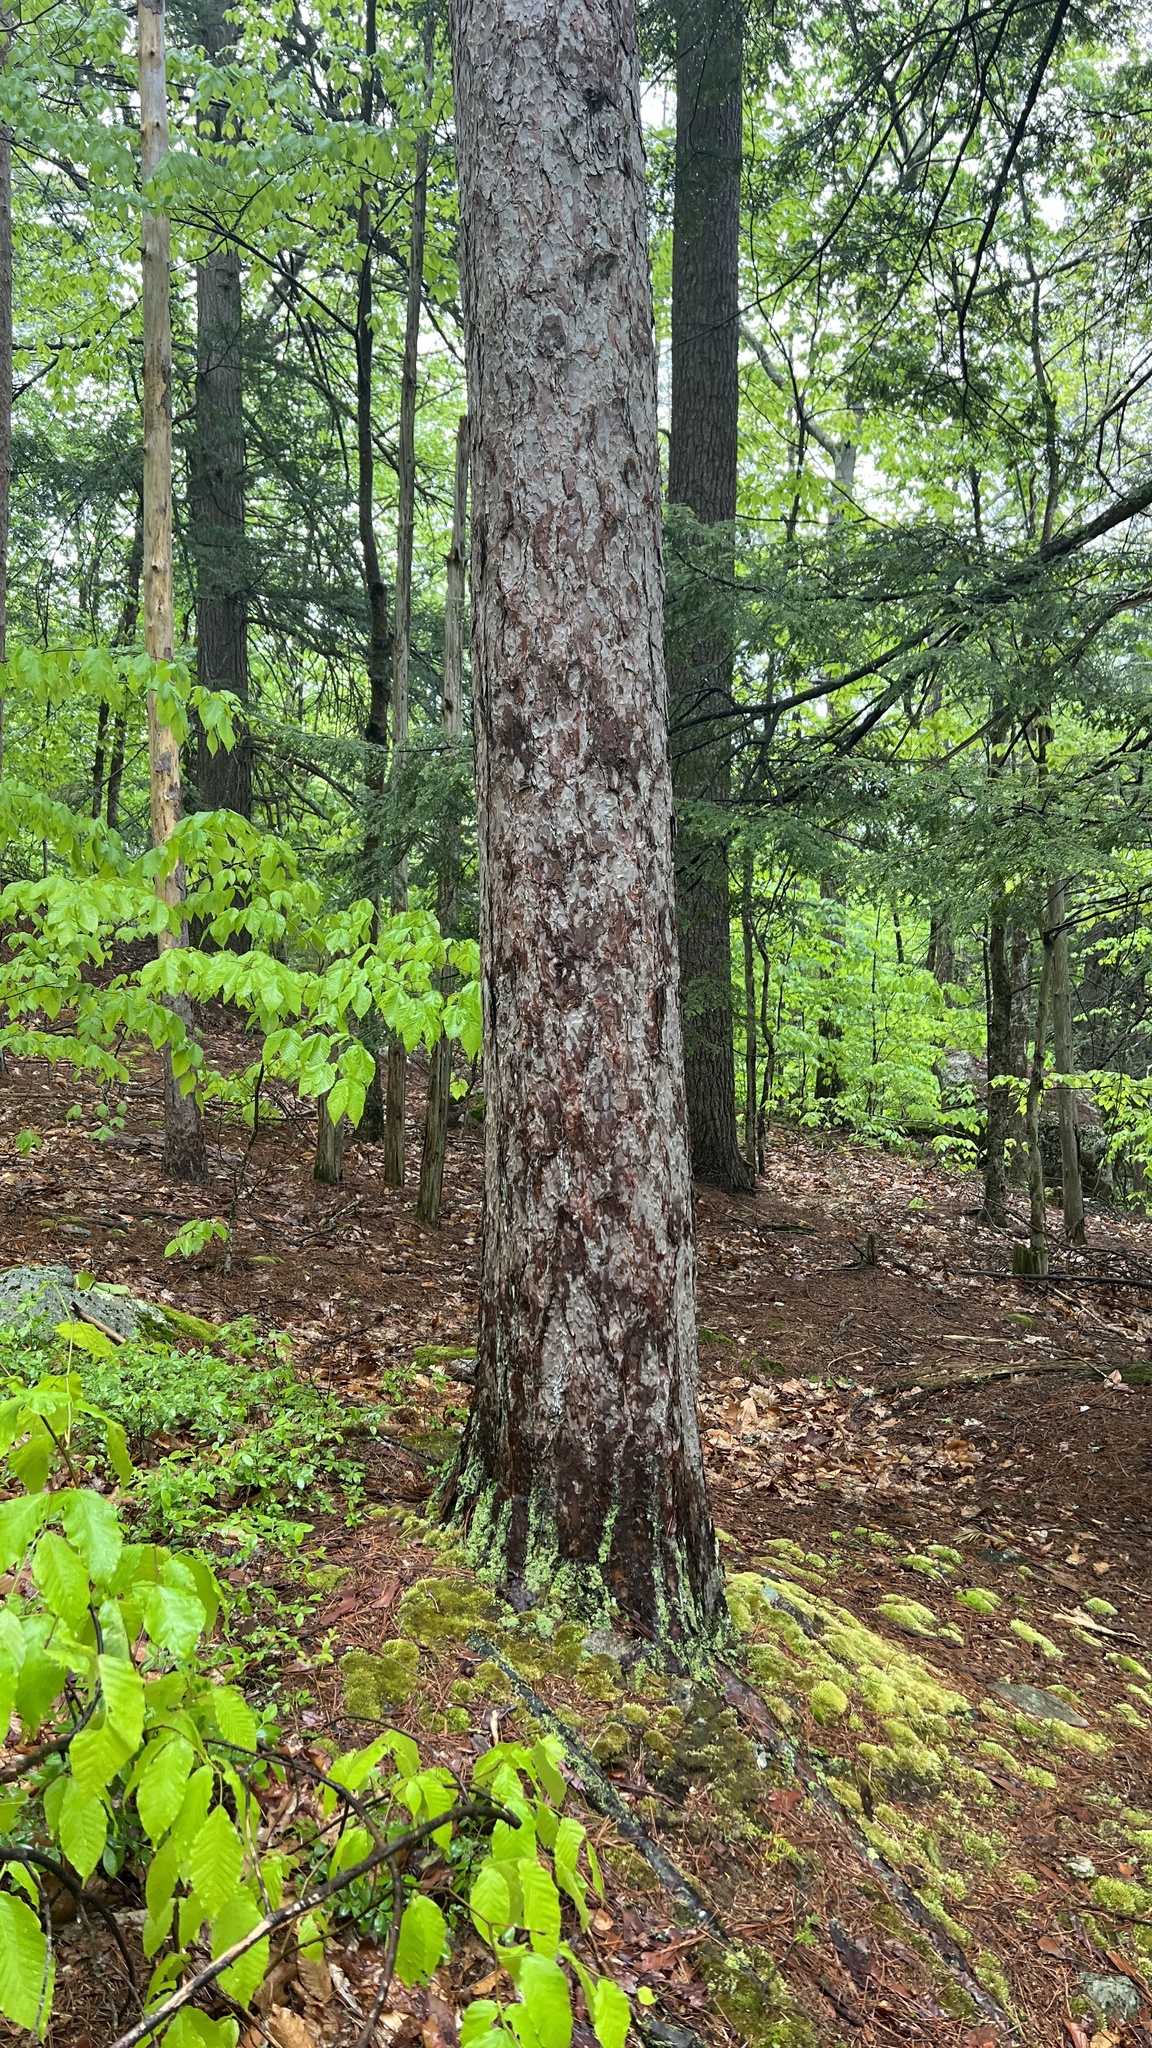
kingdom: Plantae
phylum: Tracheophyta
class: Pinopsida
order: Pinales
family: Pinaceae
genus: Pinus
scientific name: Pinus resinosa
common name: Norway pine
